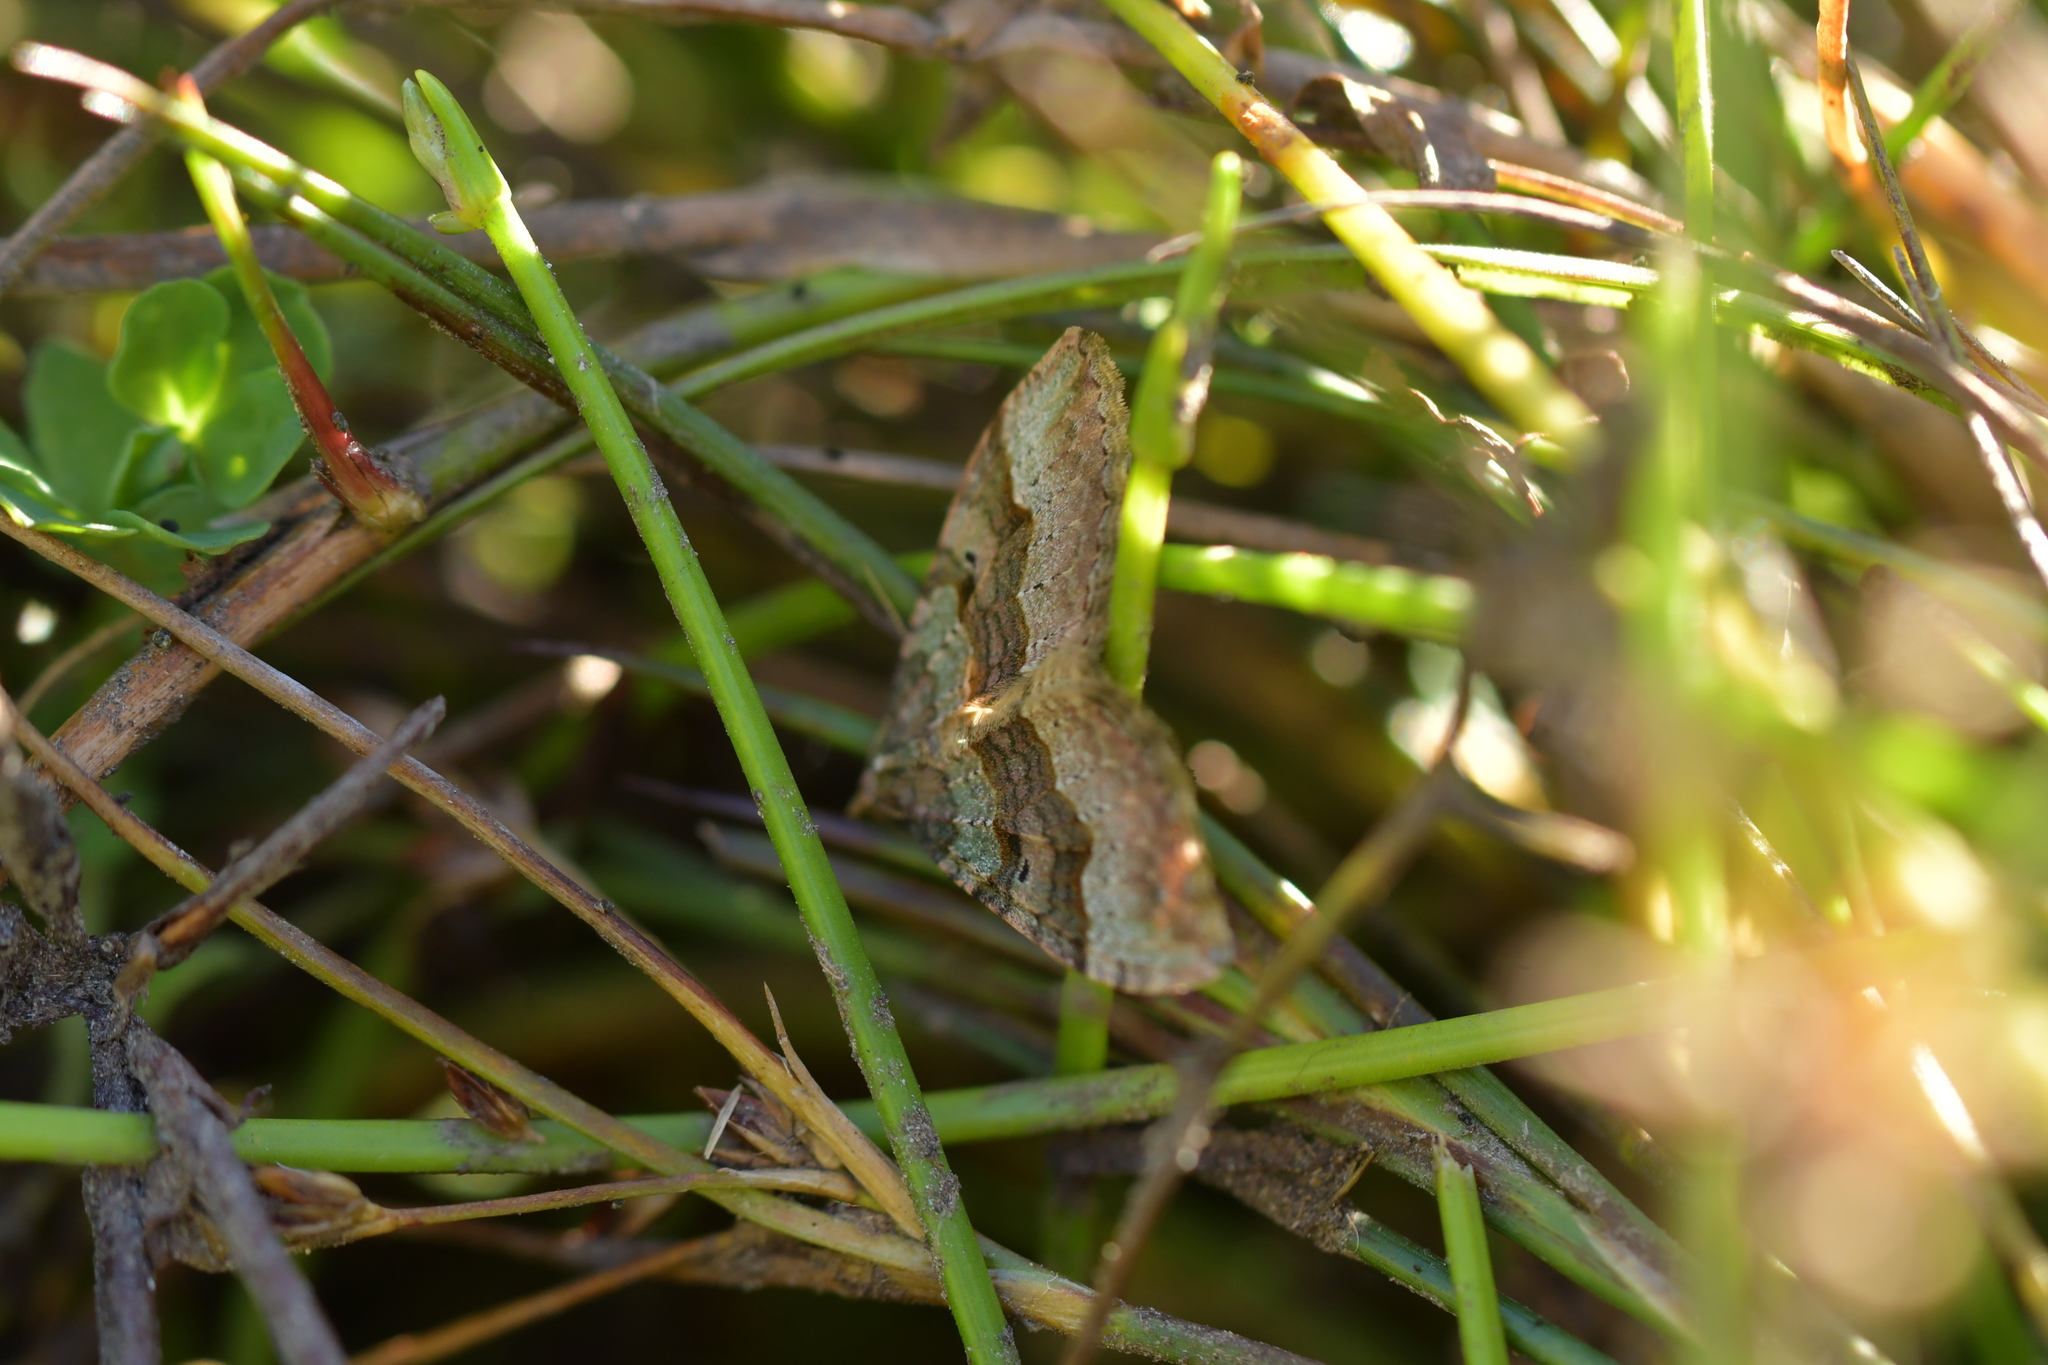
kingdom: Animalia
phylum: Arthropoda
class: Insecta
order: Lepidoptera
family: Geometridae
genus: Epyaxa
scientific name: Epyaxa rosearia
